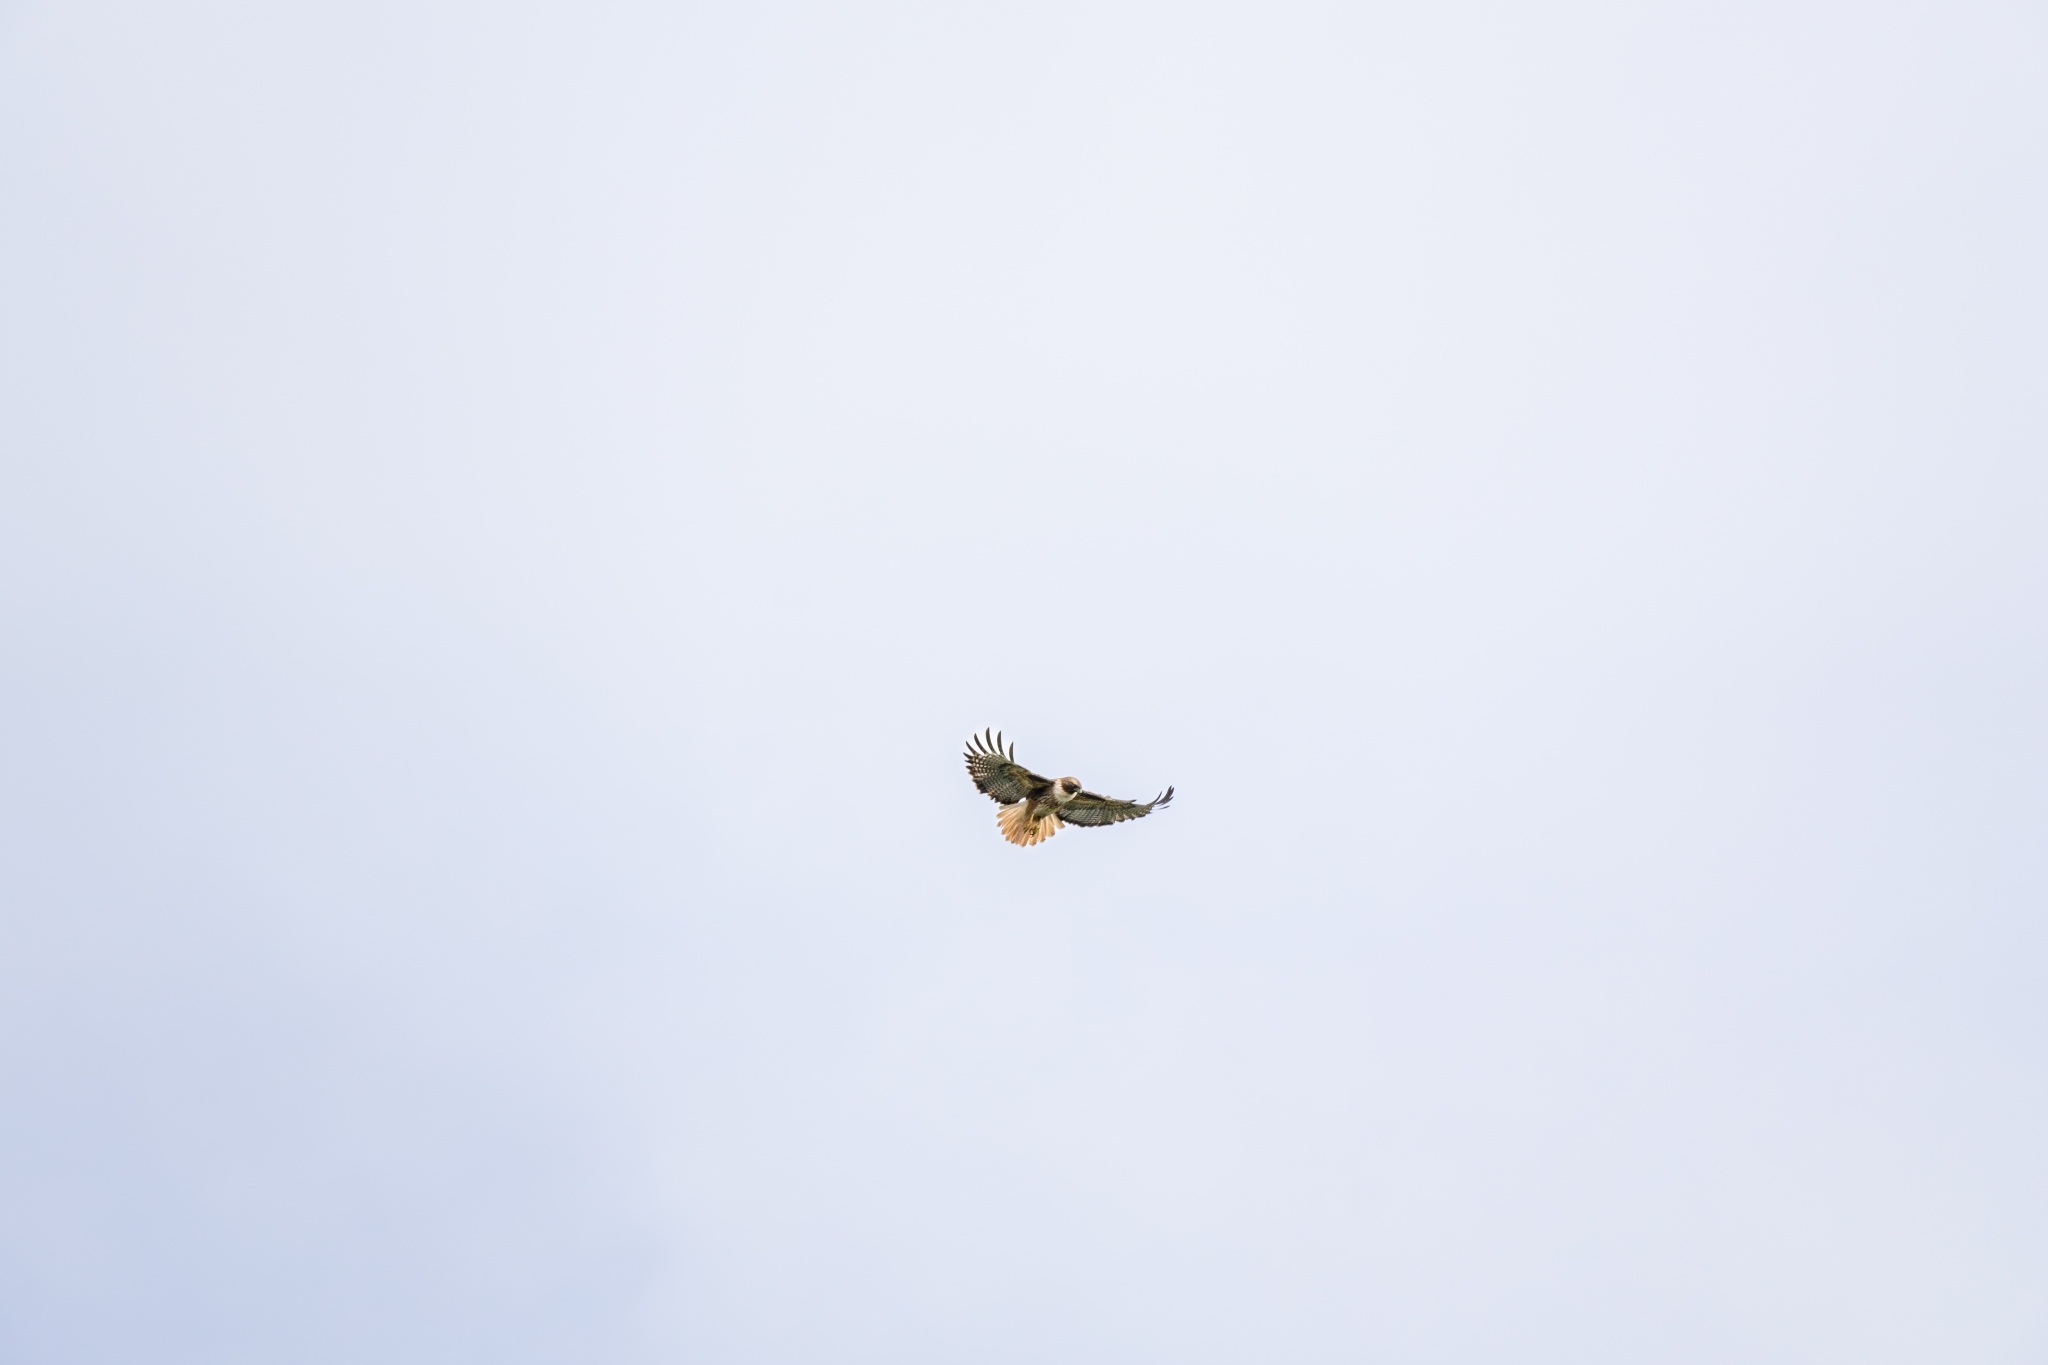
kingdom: Animalia
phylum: Chordata
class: Aves
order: Accipitriformes
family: Accipitridae
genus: Buteo
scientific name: Buteo jamaicensis
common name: Red-tailed hawk
